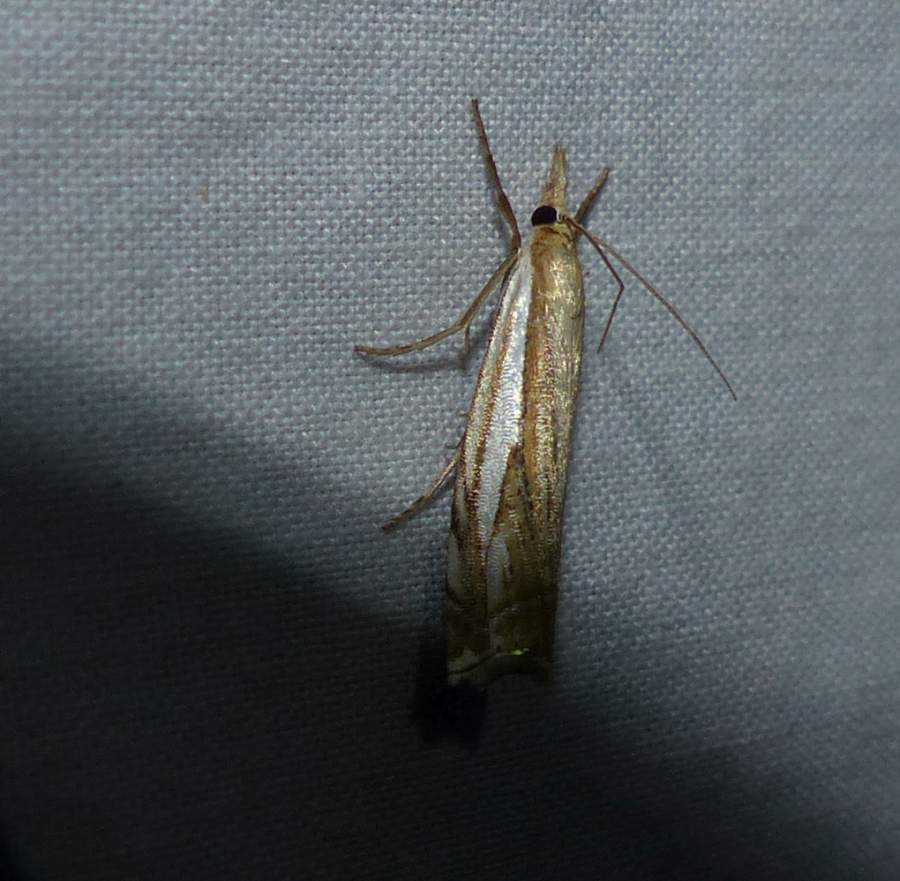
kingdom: Animalia
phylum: Arthropoda
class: Insecta
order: Lepidoptera
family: Crambidae
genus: Crambus
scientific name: Crambus saltuellus
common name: Pasture grass-veneer
